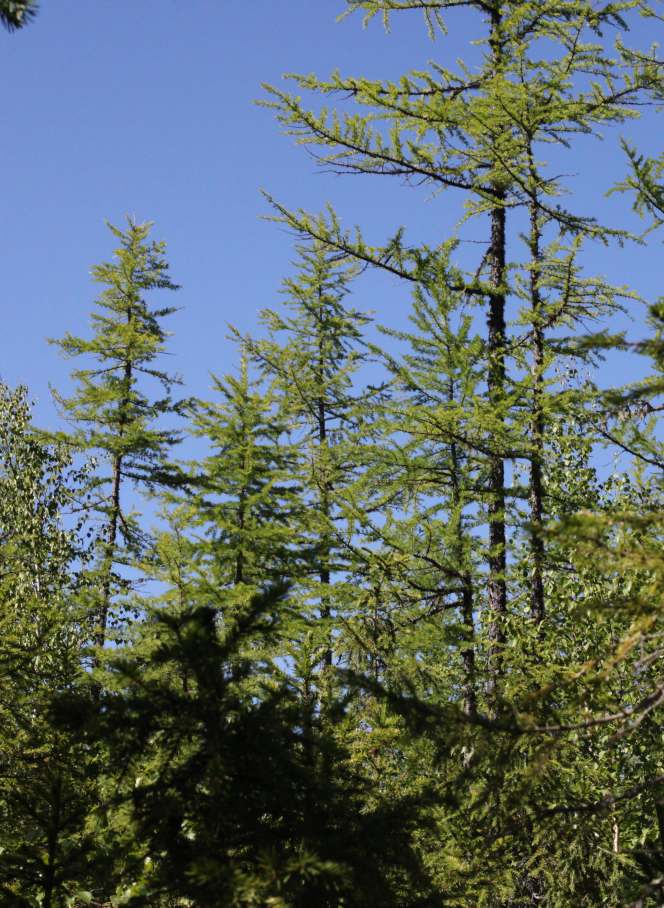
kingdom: Plantae
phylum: Tracheophyta
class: Pinopsida
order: Pinales
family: Pinaceae
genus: Larix
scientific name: Larix sibirica
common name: Siberian larch
